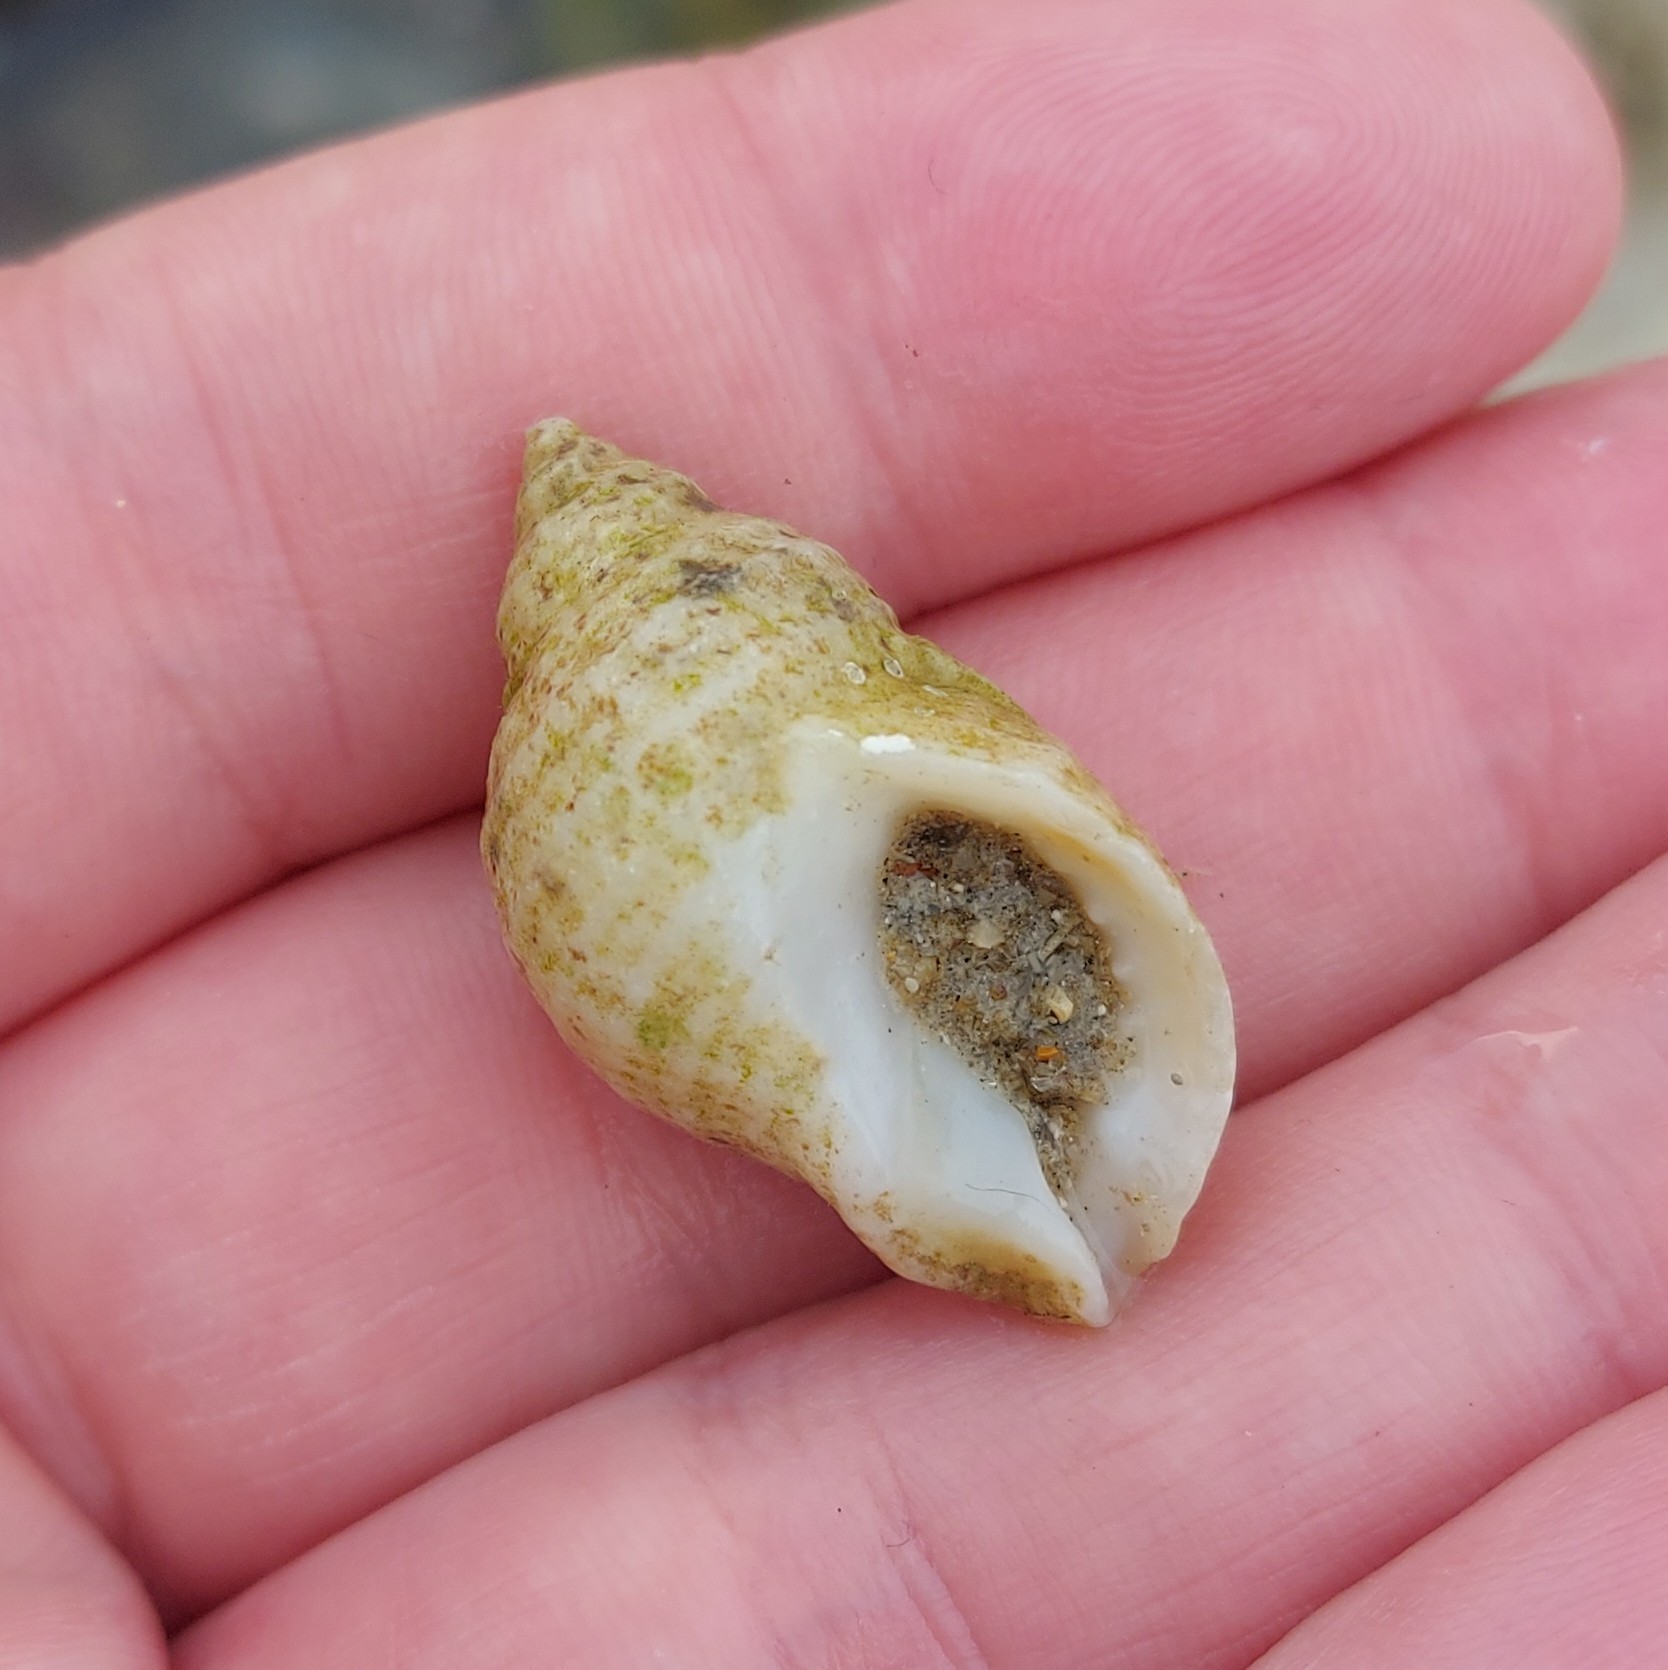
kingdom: Animalia
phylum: Mollusca
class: Gastropoda
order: Neogastropoda
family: Muricidae
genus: Nucella
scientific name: Nucella lapillus
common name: Dog whelk
